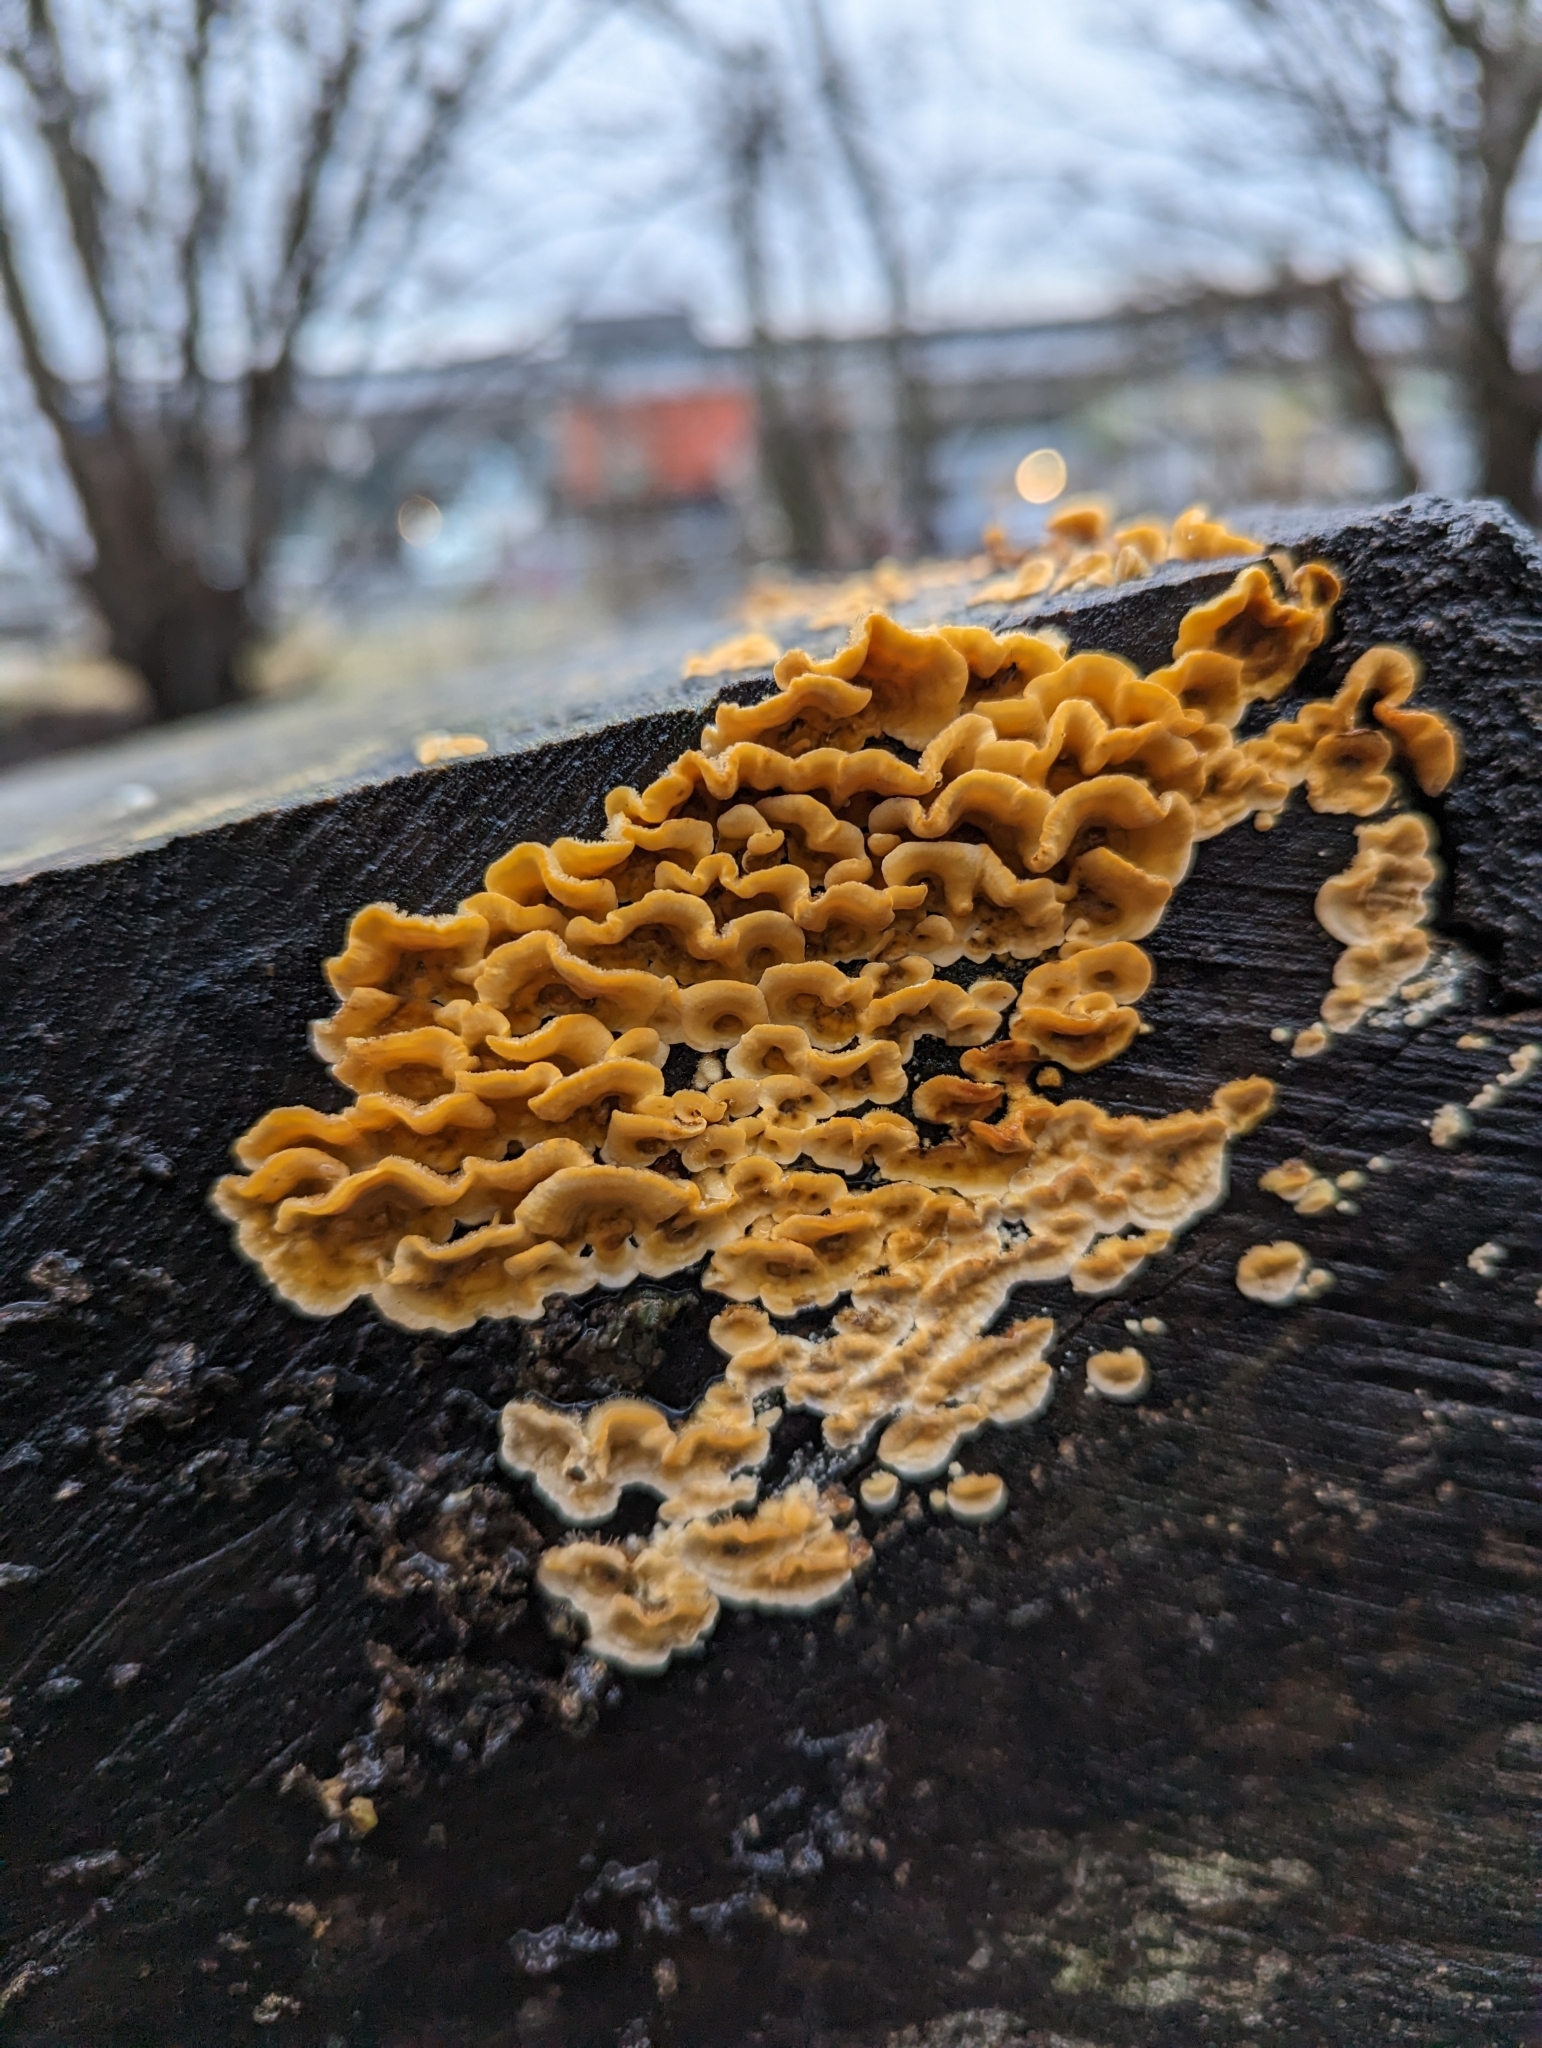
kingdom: Fungi
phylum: Basidiomycota
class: Agaricomycetes
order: Russulales
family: Stereaceae
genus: Stereum
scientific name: Stereum hirsutum
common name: Hairy curtain crust
